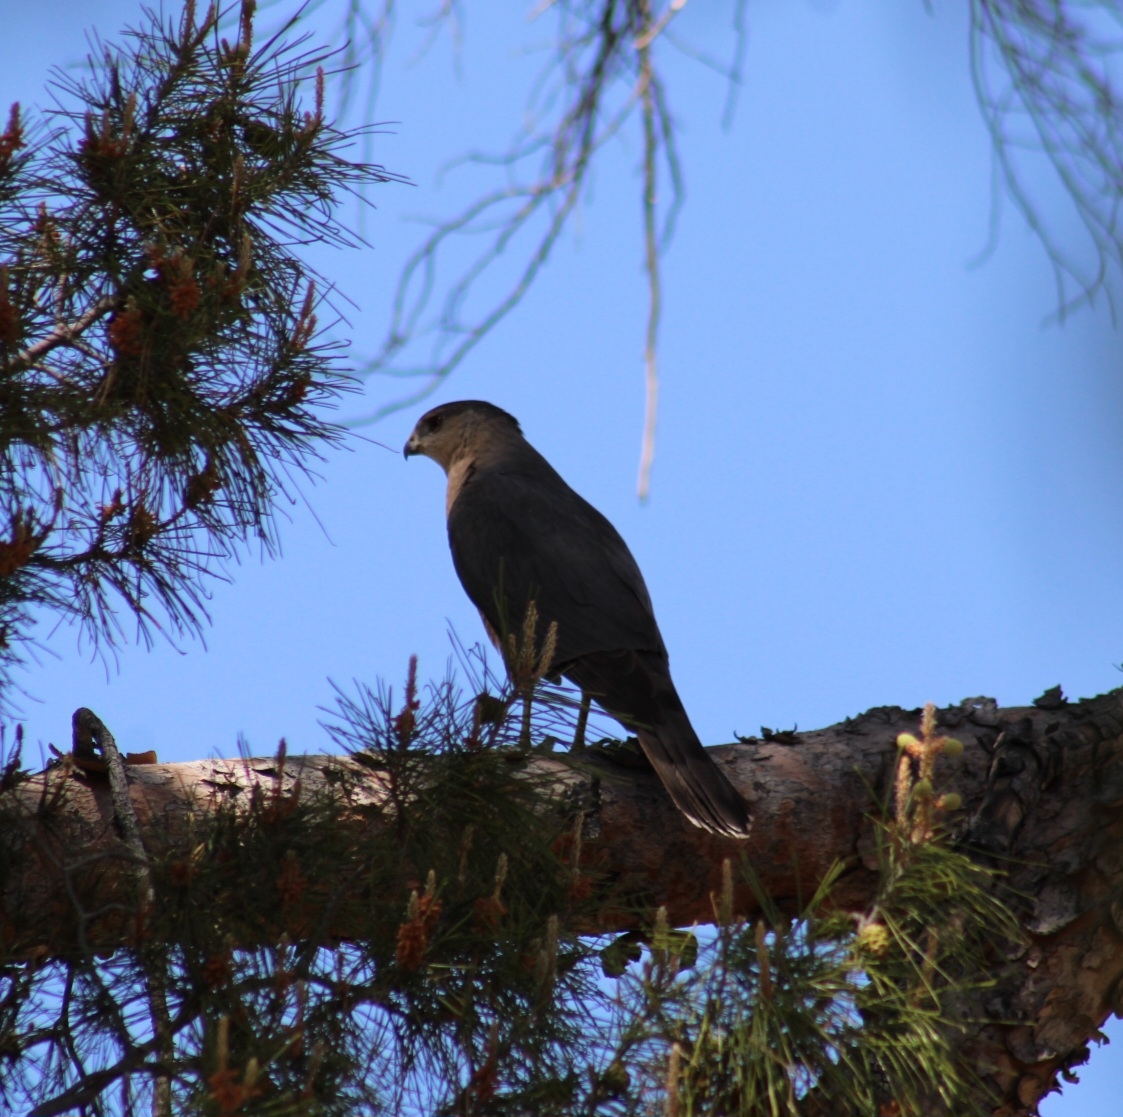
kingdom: Animalia
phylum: Chordata
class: Aves
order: Accipitriformes
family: Accipitridae
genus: Accipiter
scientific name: Accipiter cooperii
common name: Cooper's hawk
